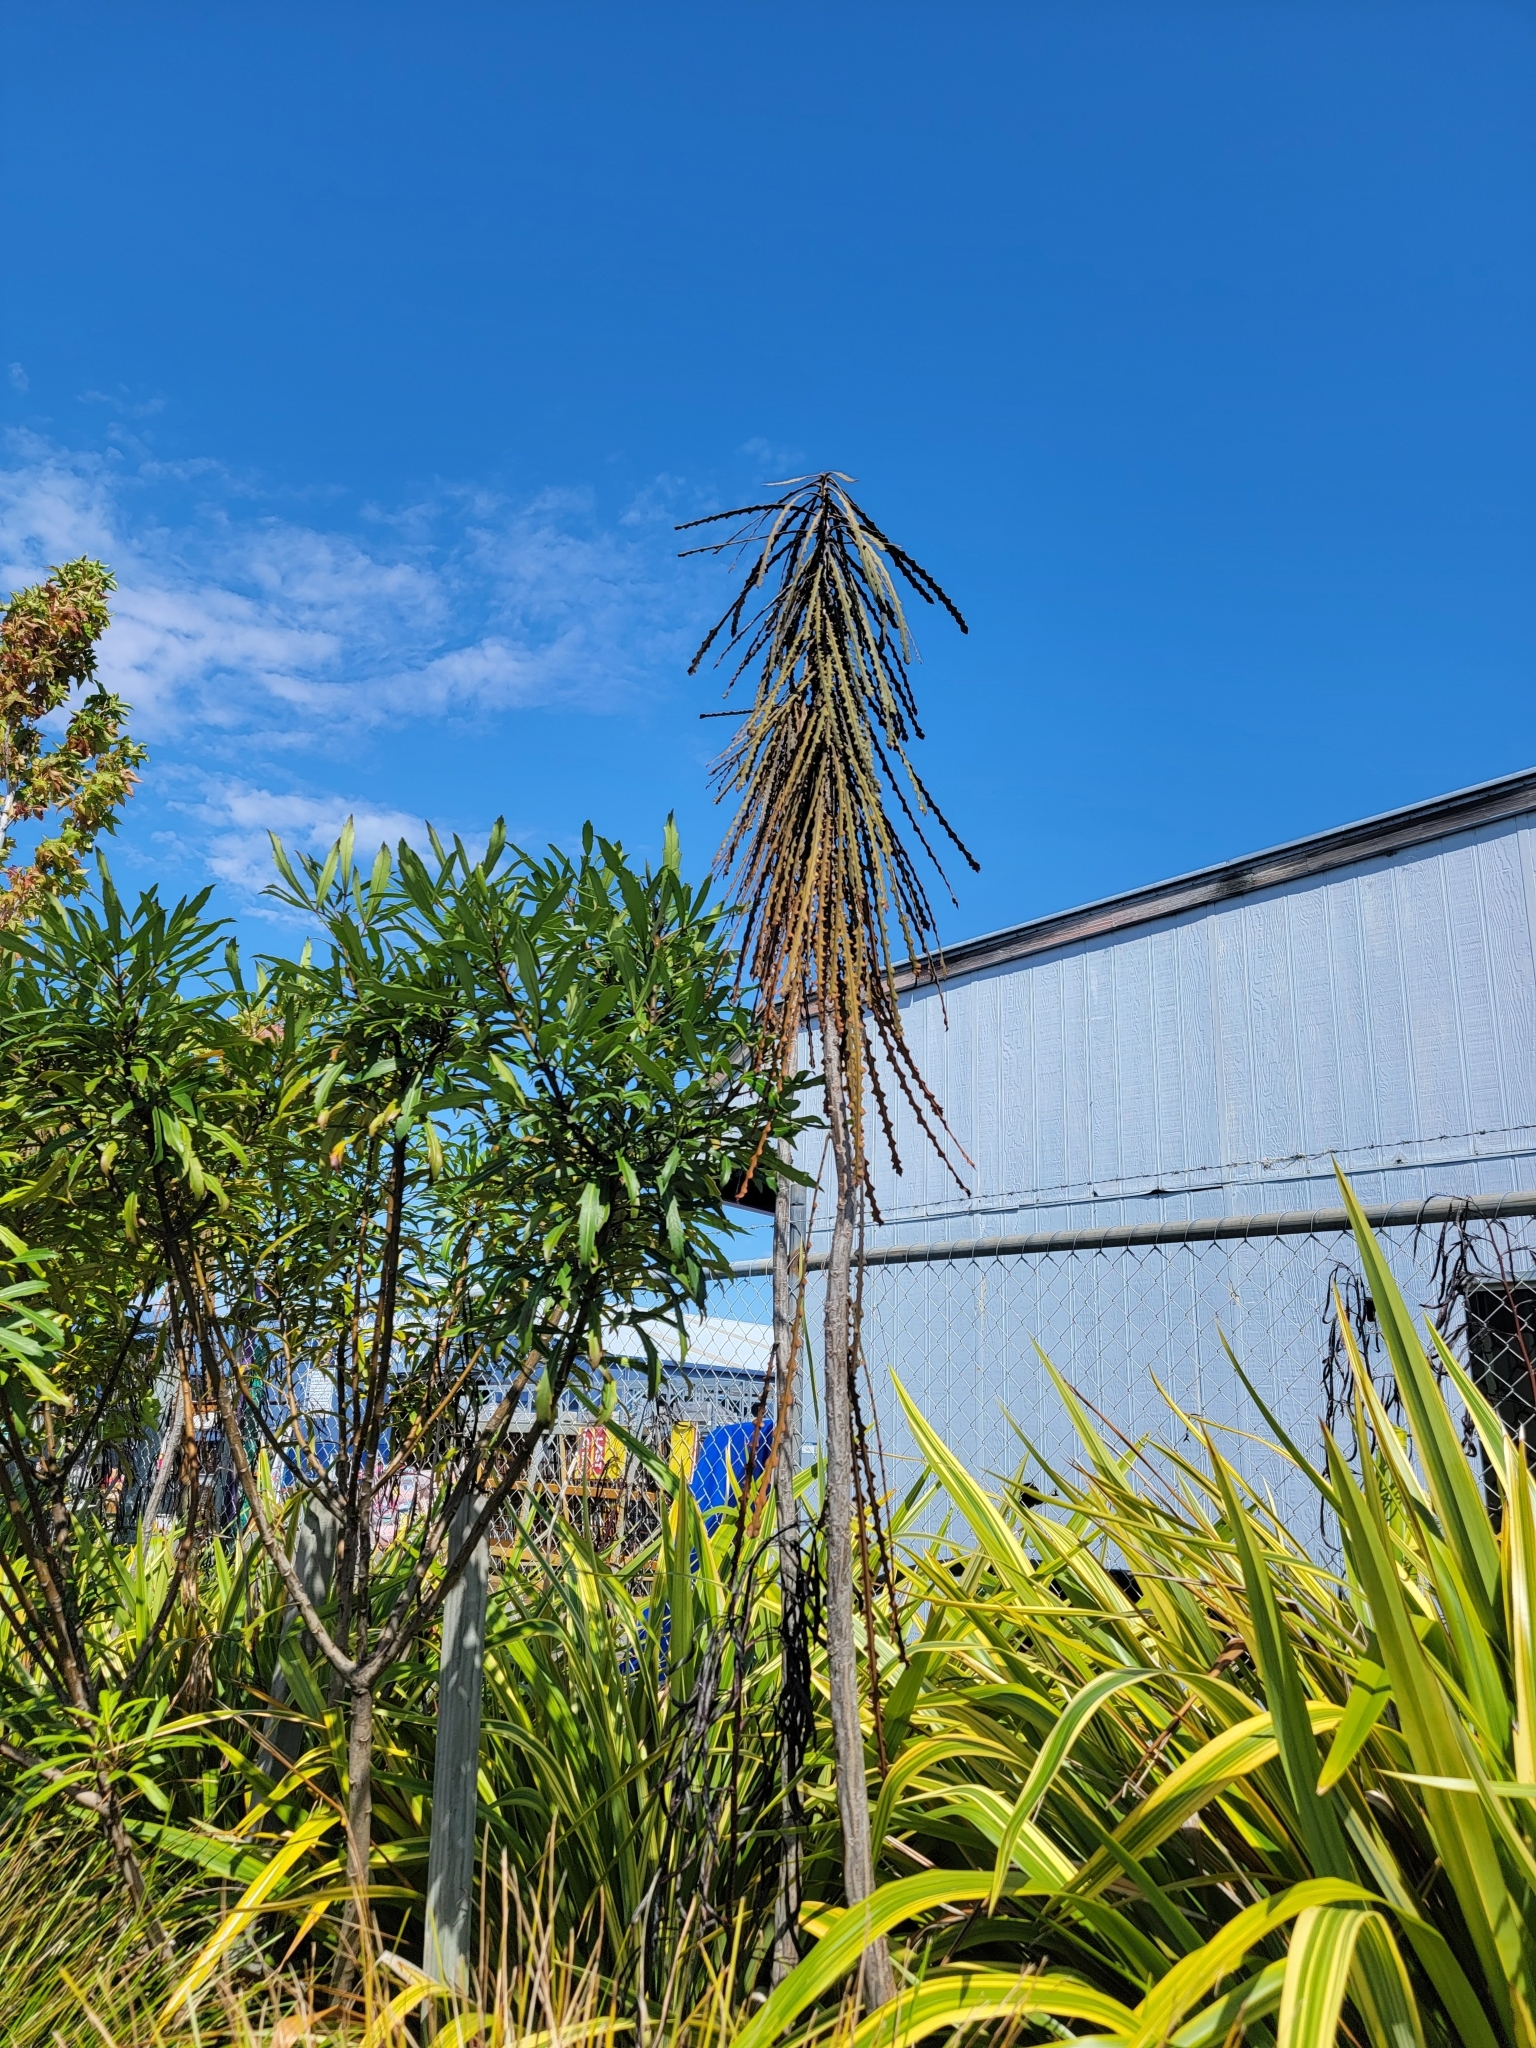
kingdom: Plantae
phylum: Tracheophyta
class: Magnoliopsida
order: Apiales
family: Araliaceae
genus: Pseudopanax
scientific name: Pseudopanax ferox
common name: Fierce lancewood
